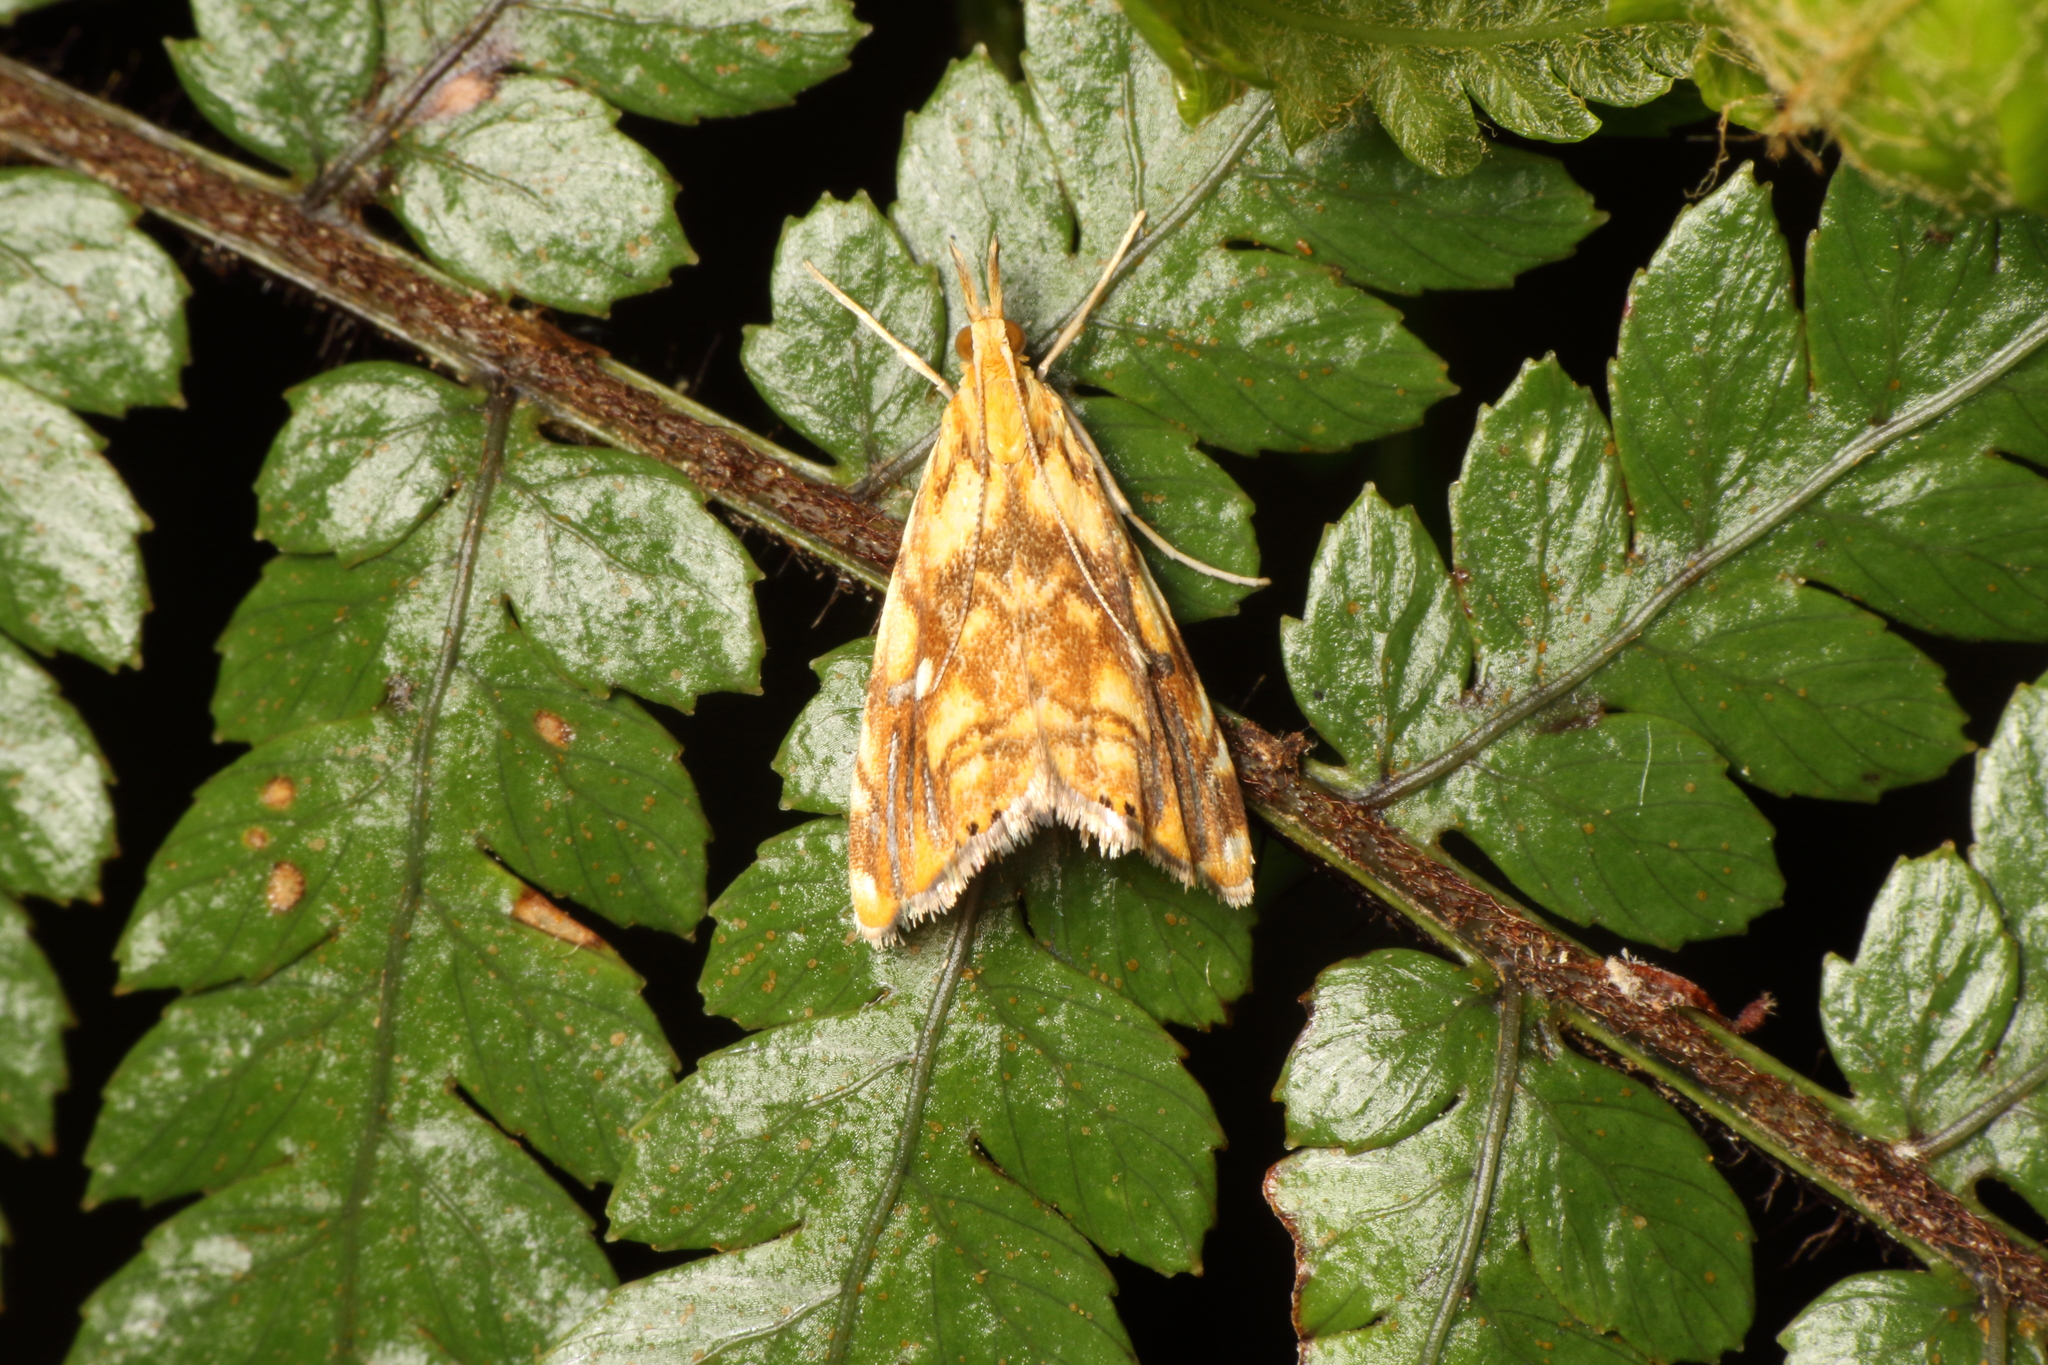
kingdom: Animalia
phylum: Arthropoda
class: Insecta
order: Lepidoptera
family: Crambidae
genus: Glaucocharis
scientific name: Glaucocharis selenaea
